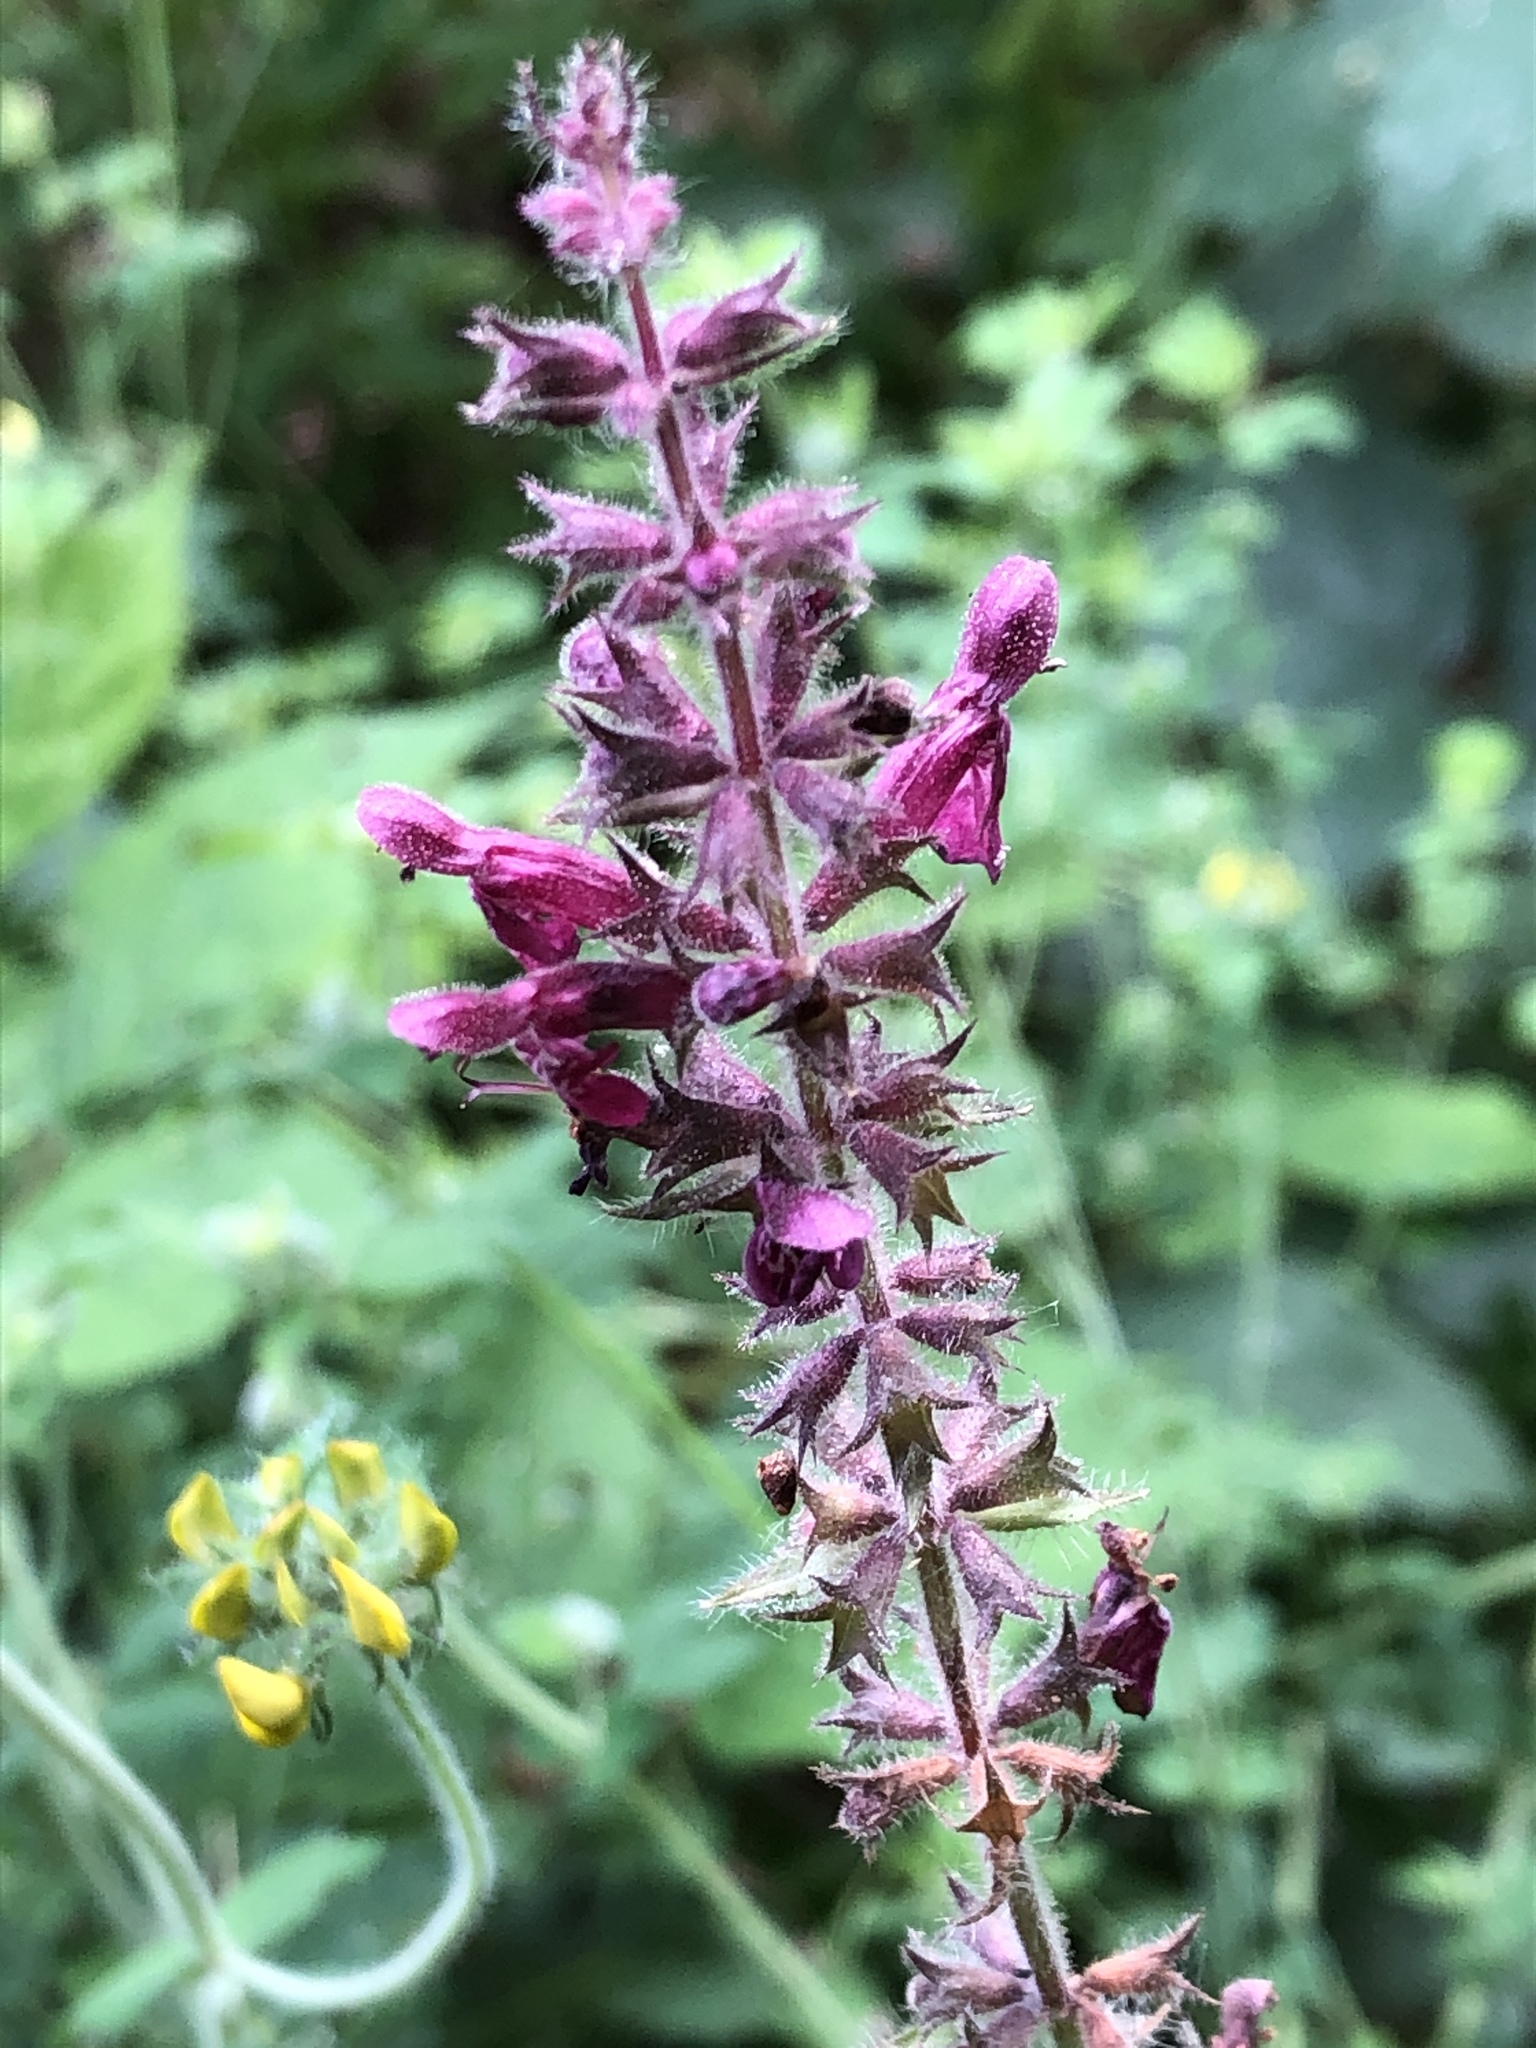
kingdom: Plantae
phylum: Tracheophyta
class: Magnoliopsida
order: Lamiales
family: Lamiaceae
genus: Stachys
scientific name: Stachys sylvatica
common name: Hedge woundwort
